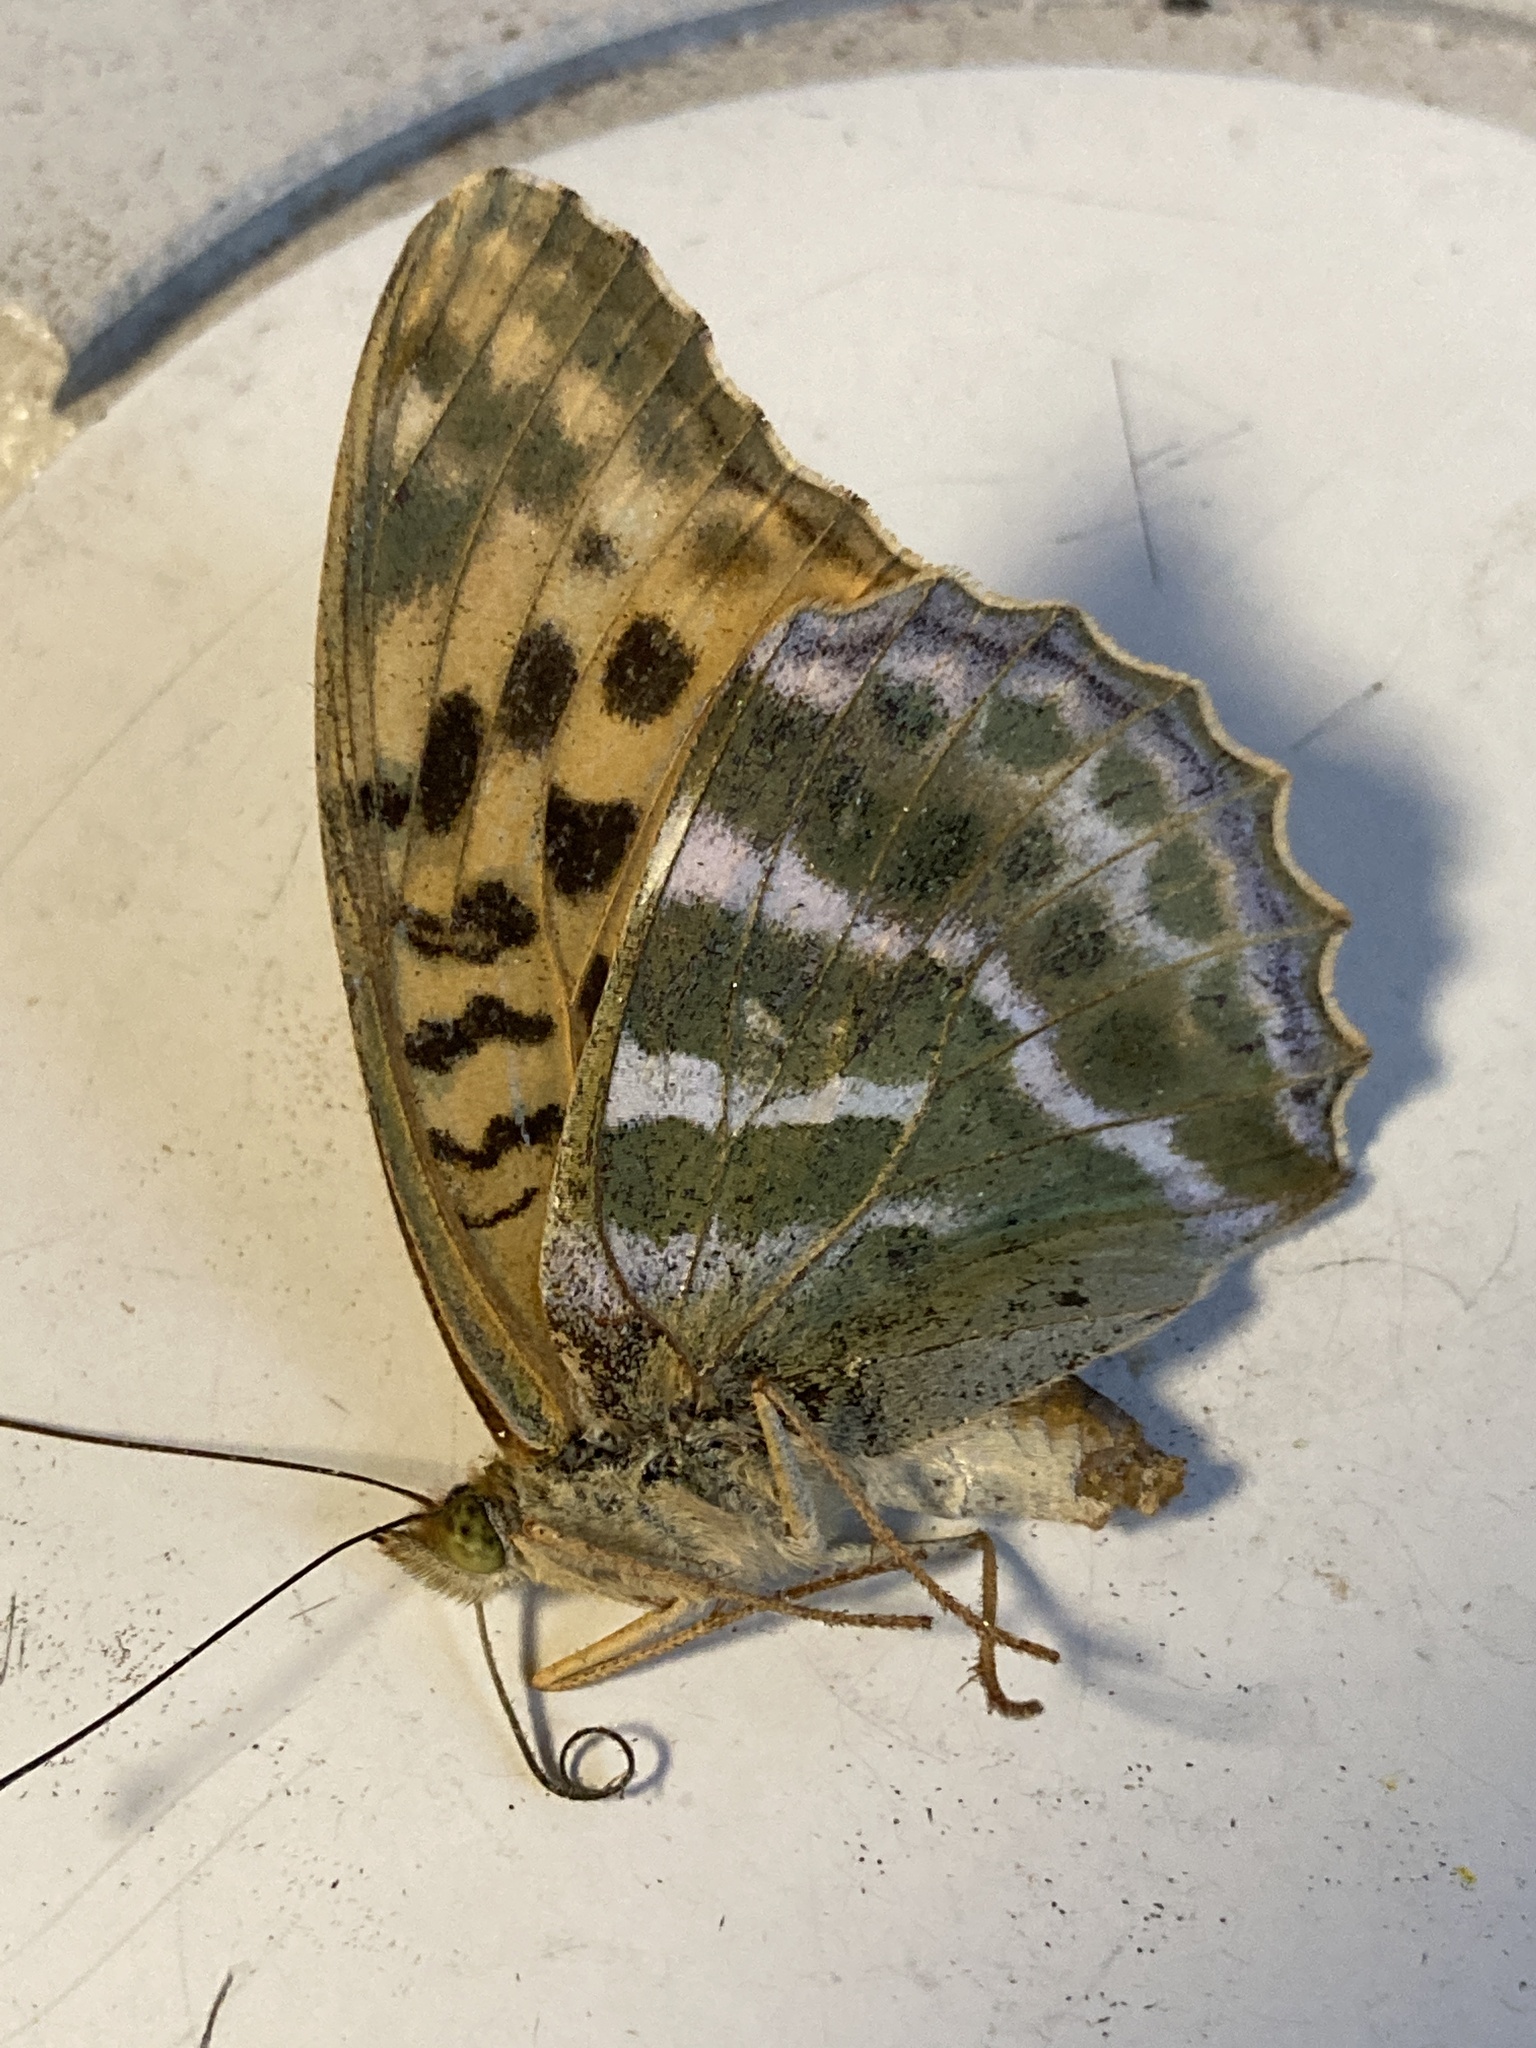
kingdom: Animalia
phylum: Arthropoda
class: Insecta
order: Lepidoptera
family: Nymphalidae
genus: Argynnis
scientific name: Argynnis paphia
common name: Silver-washed fritillary
